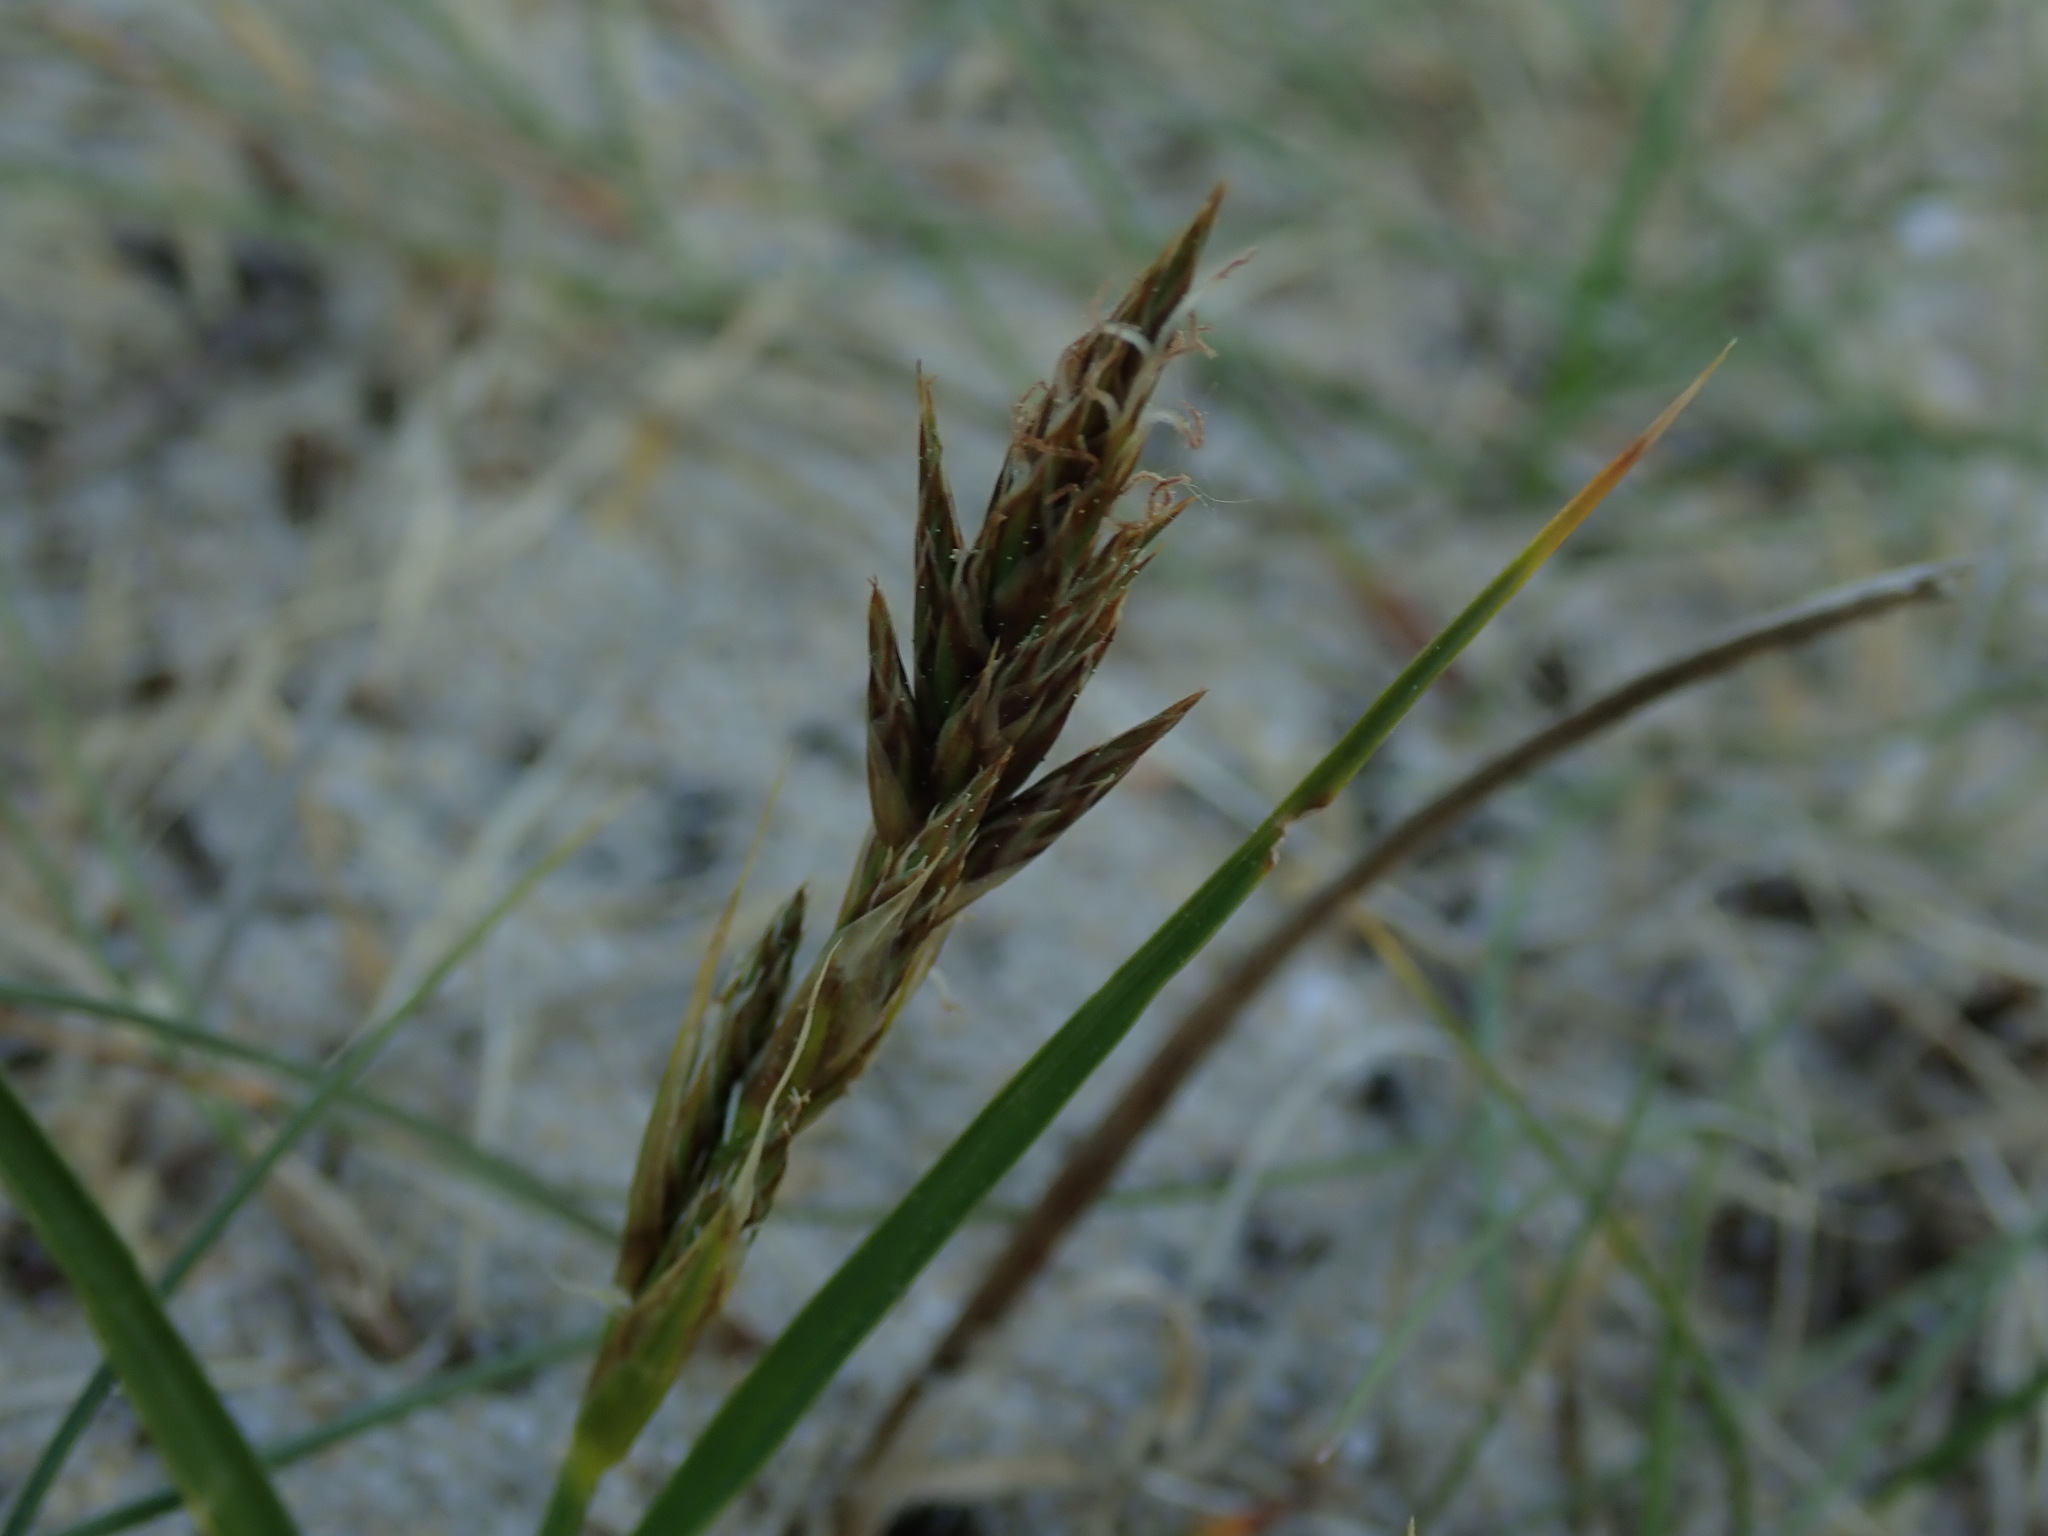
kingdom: Plantae
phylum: Tracheophyta
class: Liliopsida
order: Poales
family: Cyperaceae
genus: Carex
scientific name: Carex arenaria
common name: Sand sedge
